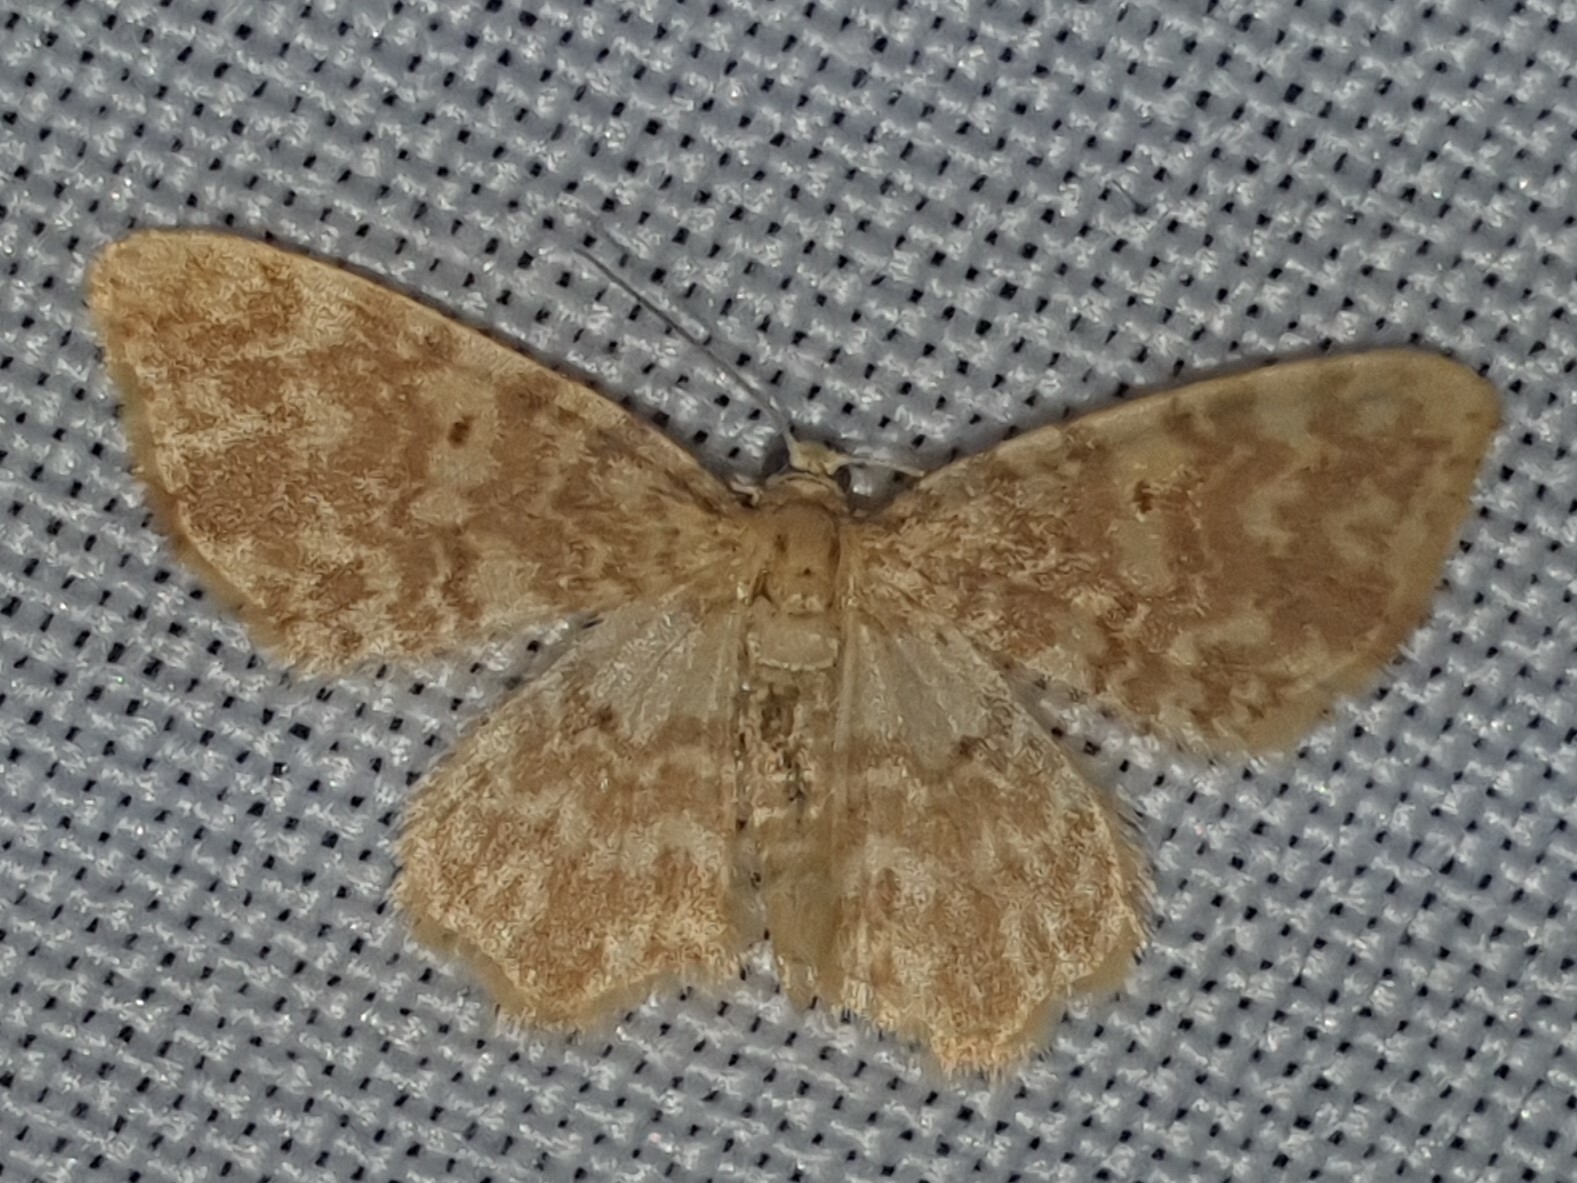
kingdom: Animalia
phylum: Arthropoda
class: Insecta
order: Lepidoptera
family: Geometridae
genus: Hydrelia
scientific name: Hydrelia flammeolaria
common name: Small yellow wave
